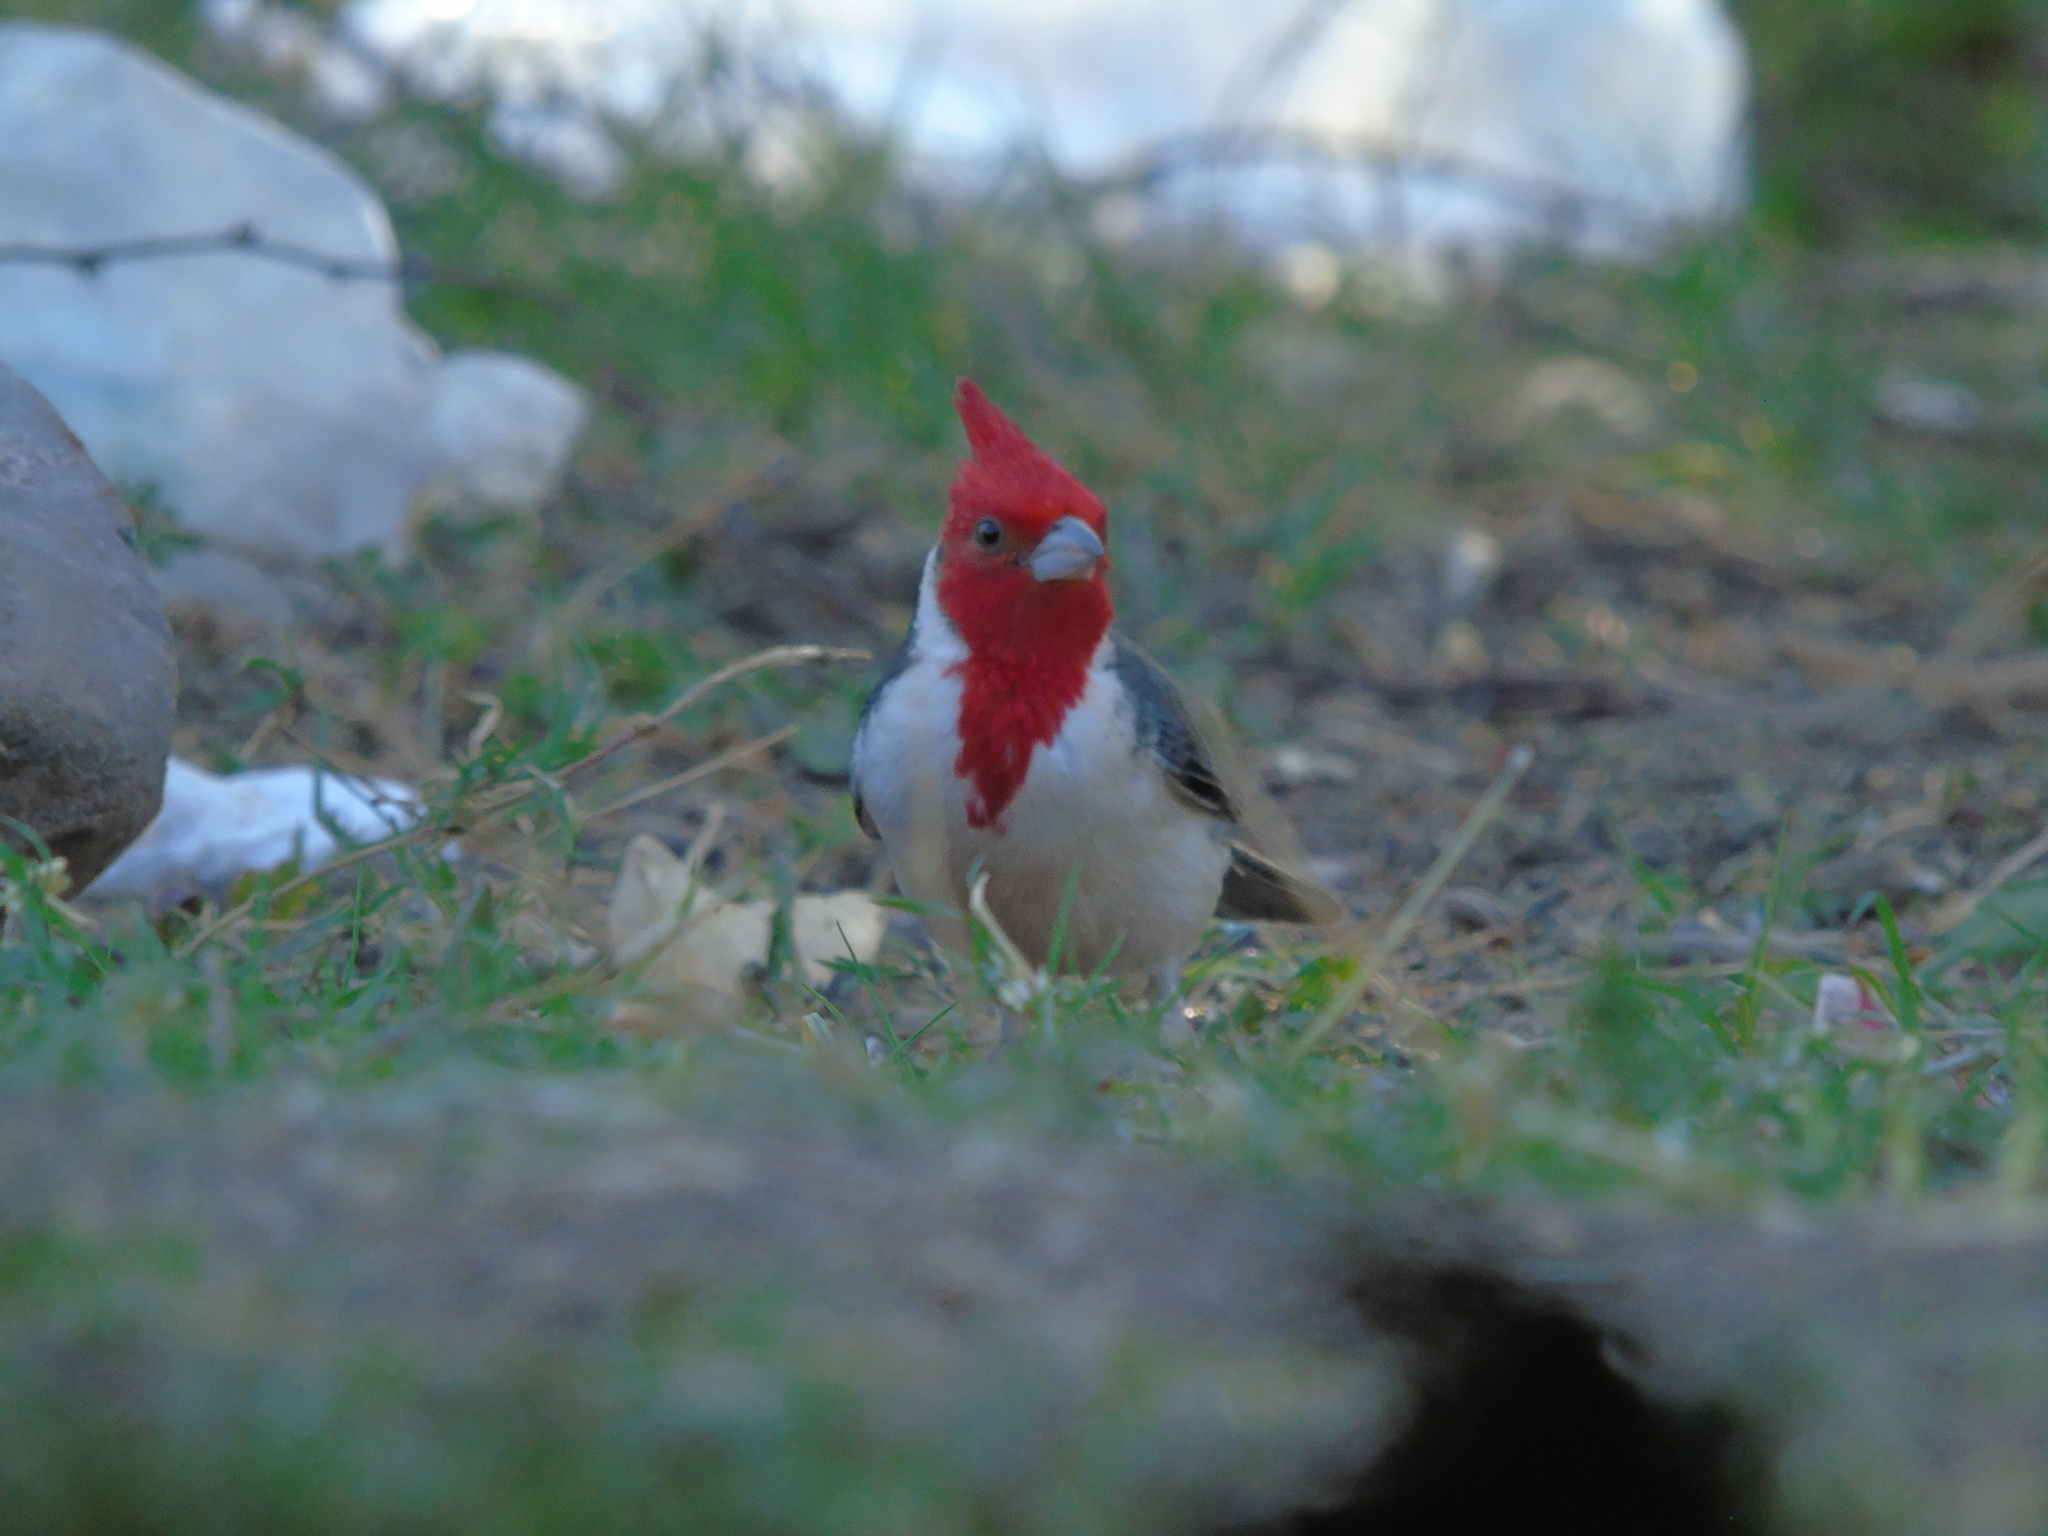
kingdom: Animalia
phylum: Chordata
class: Aves
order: Passeriformes
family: Thraupidae
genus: Paroaria
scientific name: Paroaria coronata
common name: Red-crested cardinal
